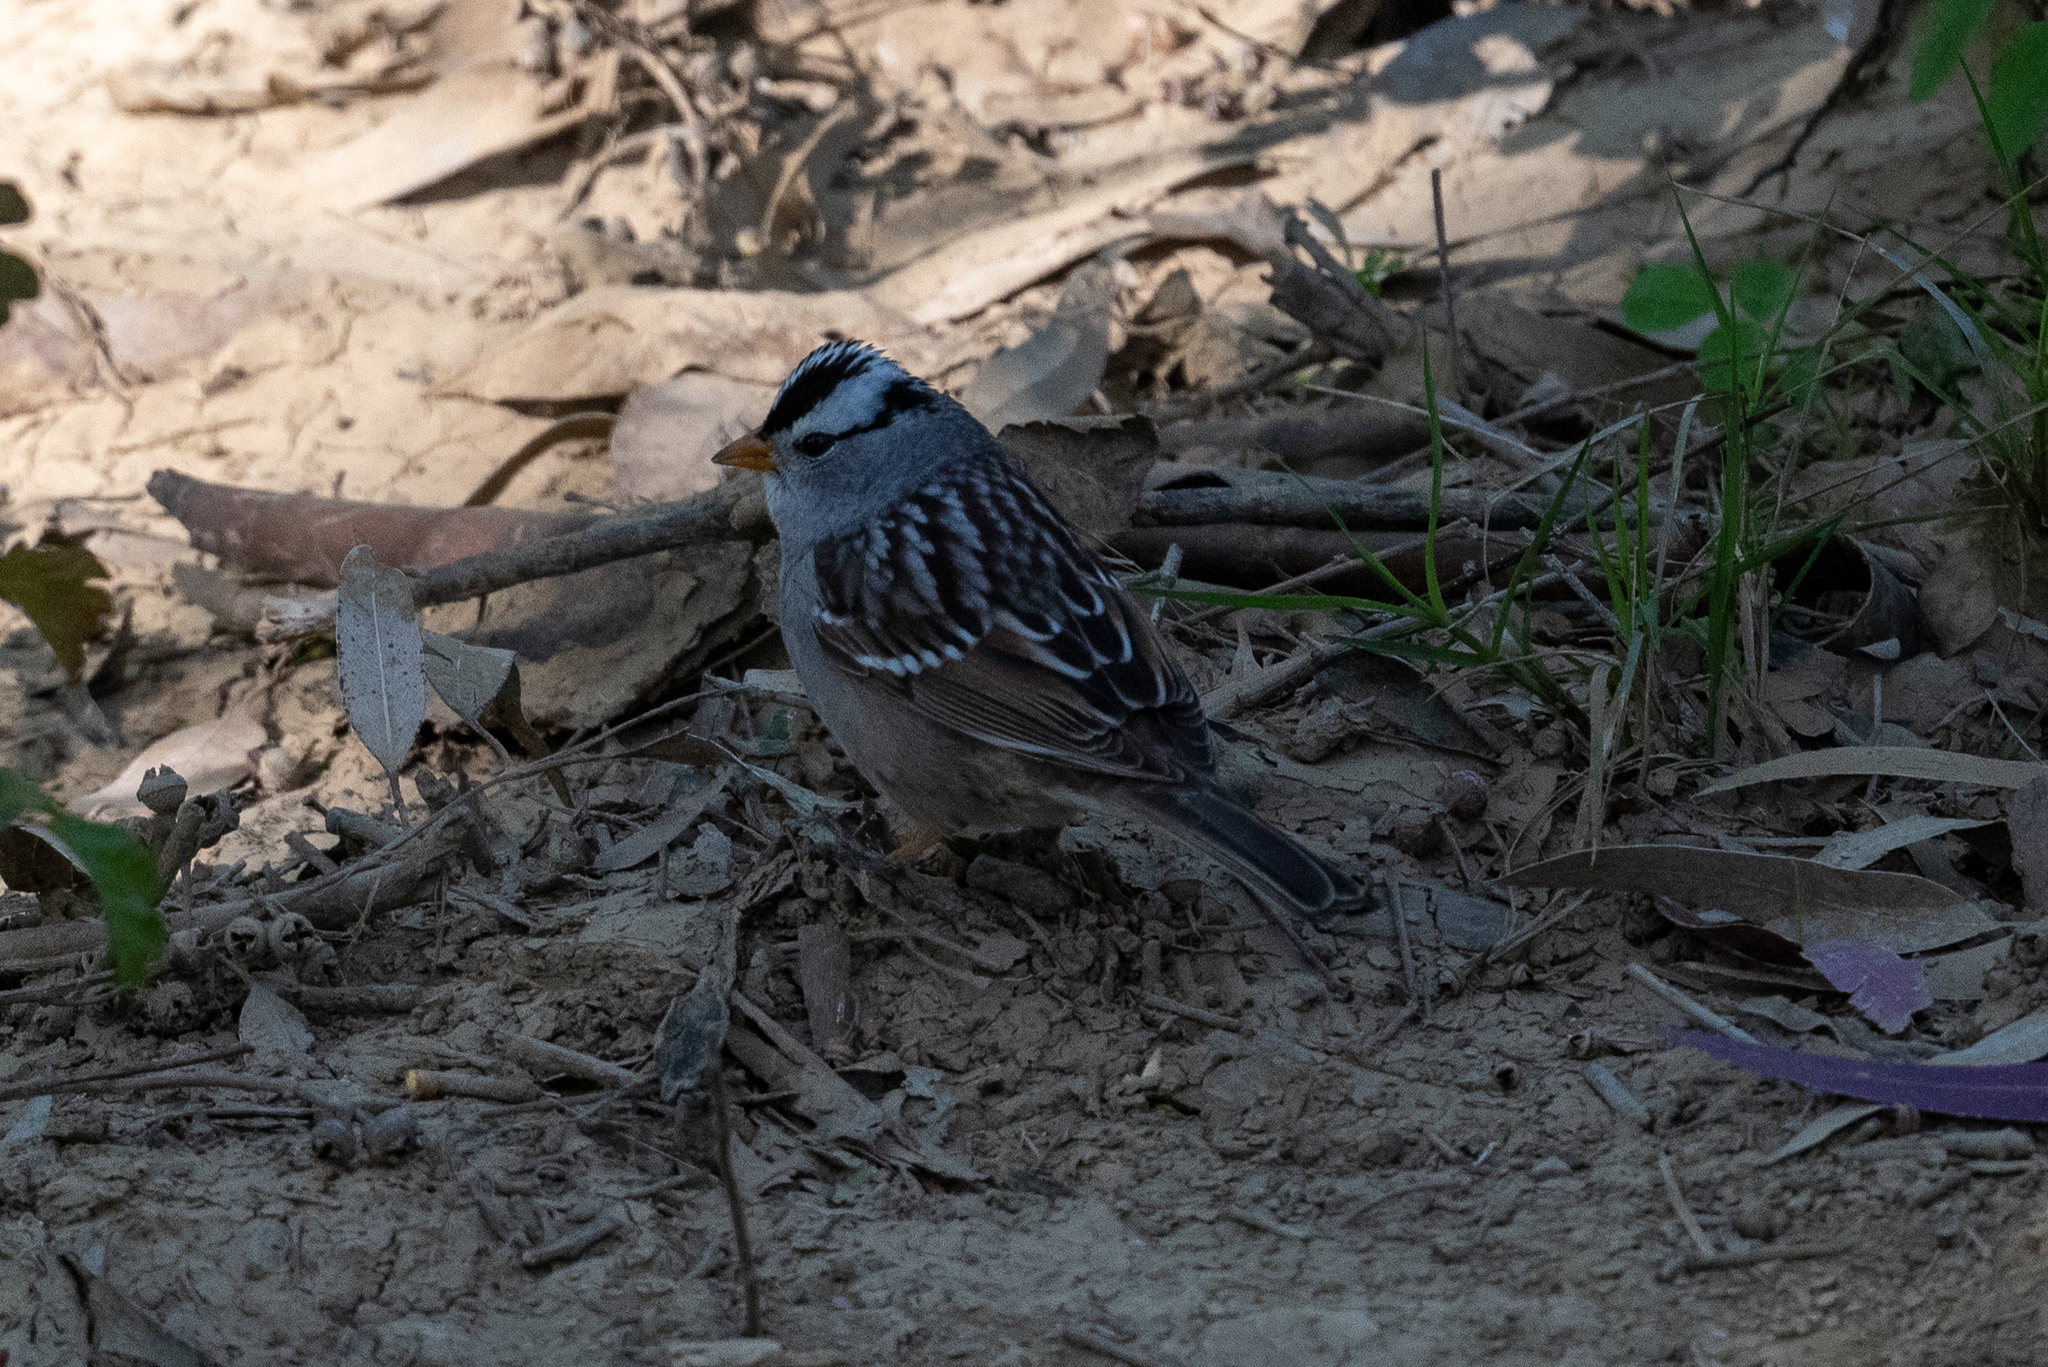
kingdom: Animalia
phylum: Chordata
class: Aves
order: Passeriformes
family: Passerellidae
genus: Zonotrichia
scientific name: Zonotrichia leucophrys
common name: White-crowned sparrow
